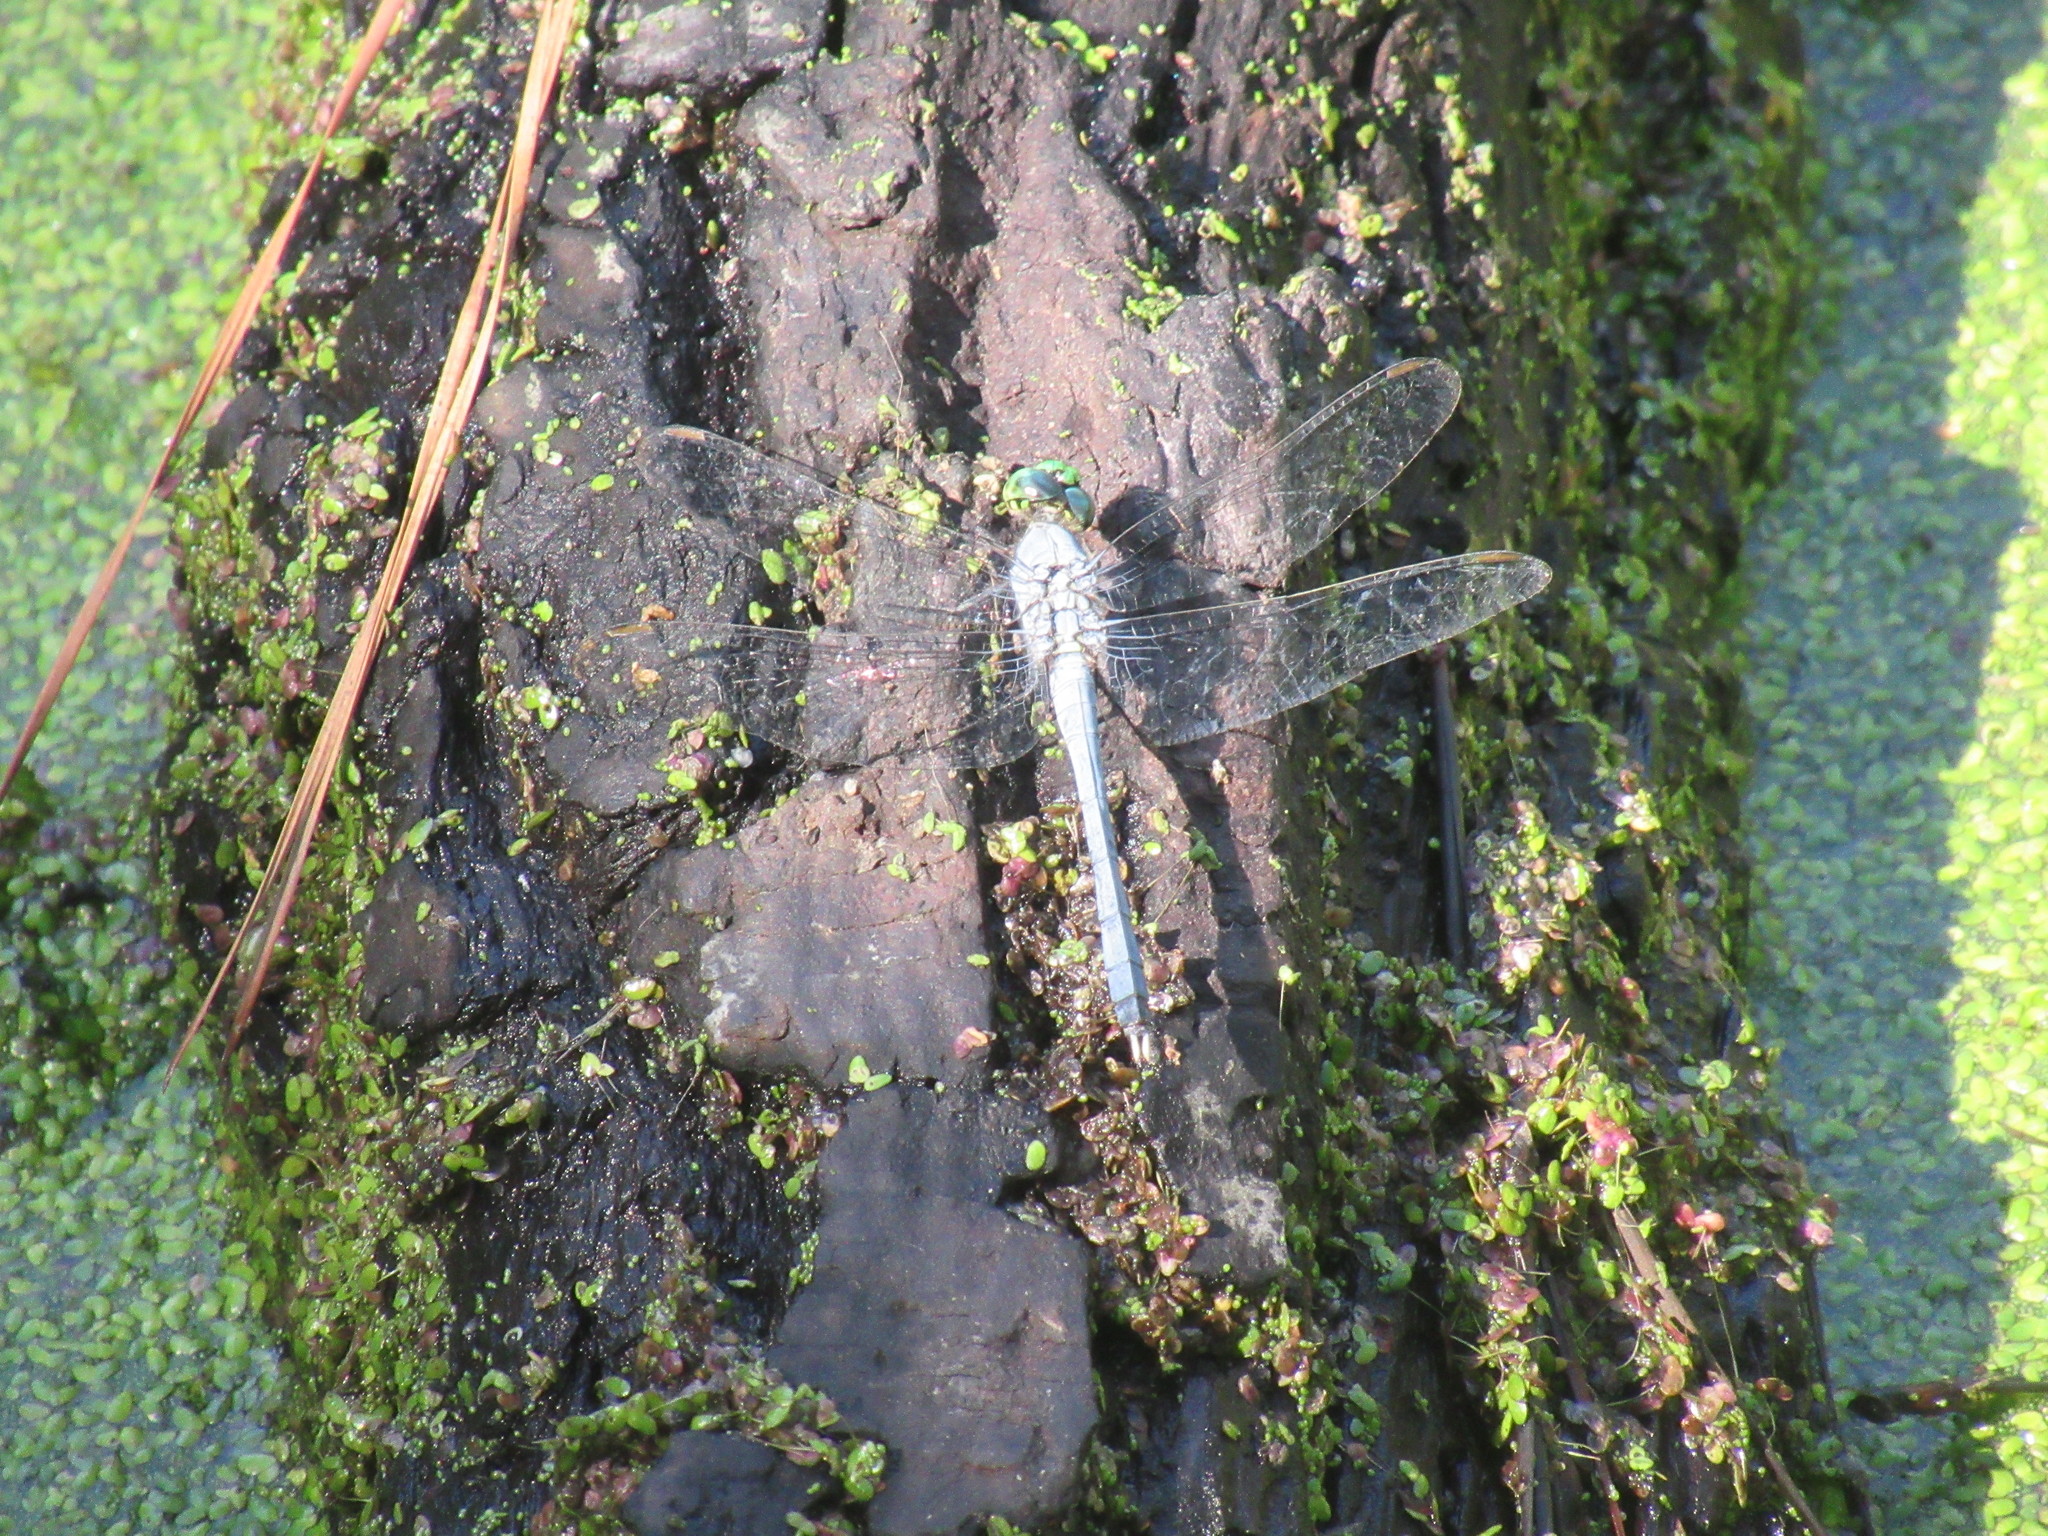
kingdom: Animalia
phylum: Arthropoda
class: Insecta
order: Odonata
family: Libellulidae
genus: Erythemis
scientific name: Erythemis simplicicollis
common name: Eastern pondhawk
